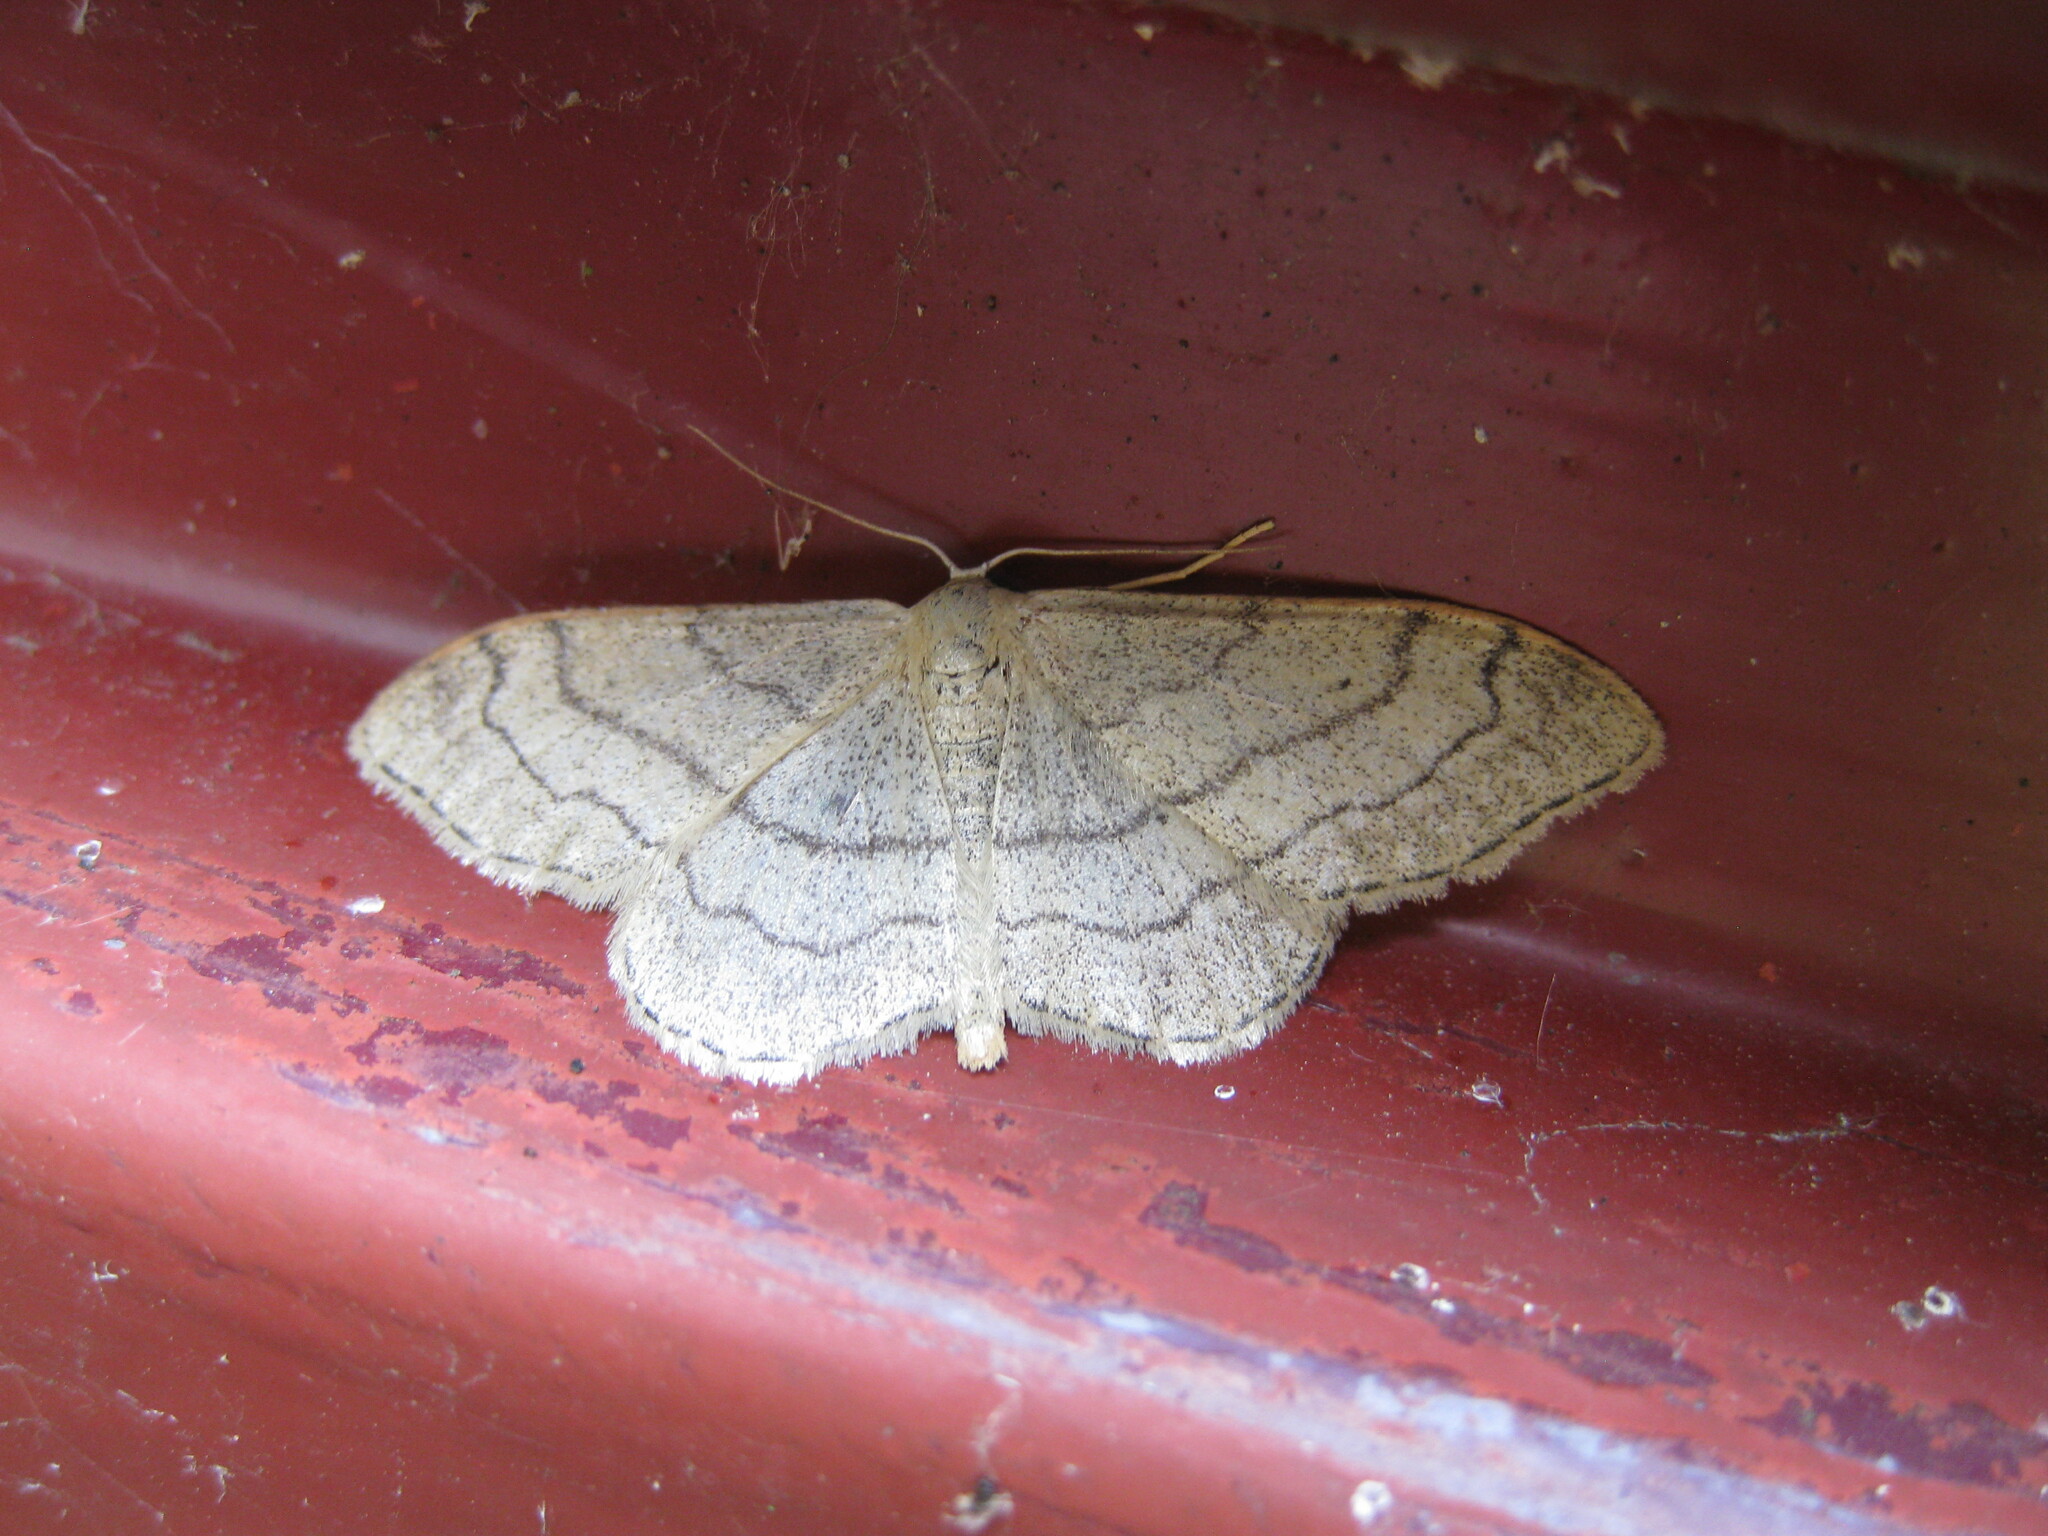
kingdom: Animalia
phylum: Arthropoda
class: Insecta
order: Lepidoptera
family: Geometridae
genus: Idaea
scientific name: Idaea aversata
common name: Riband wave
